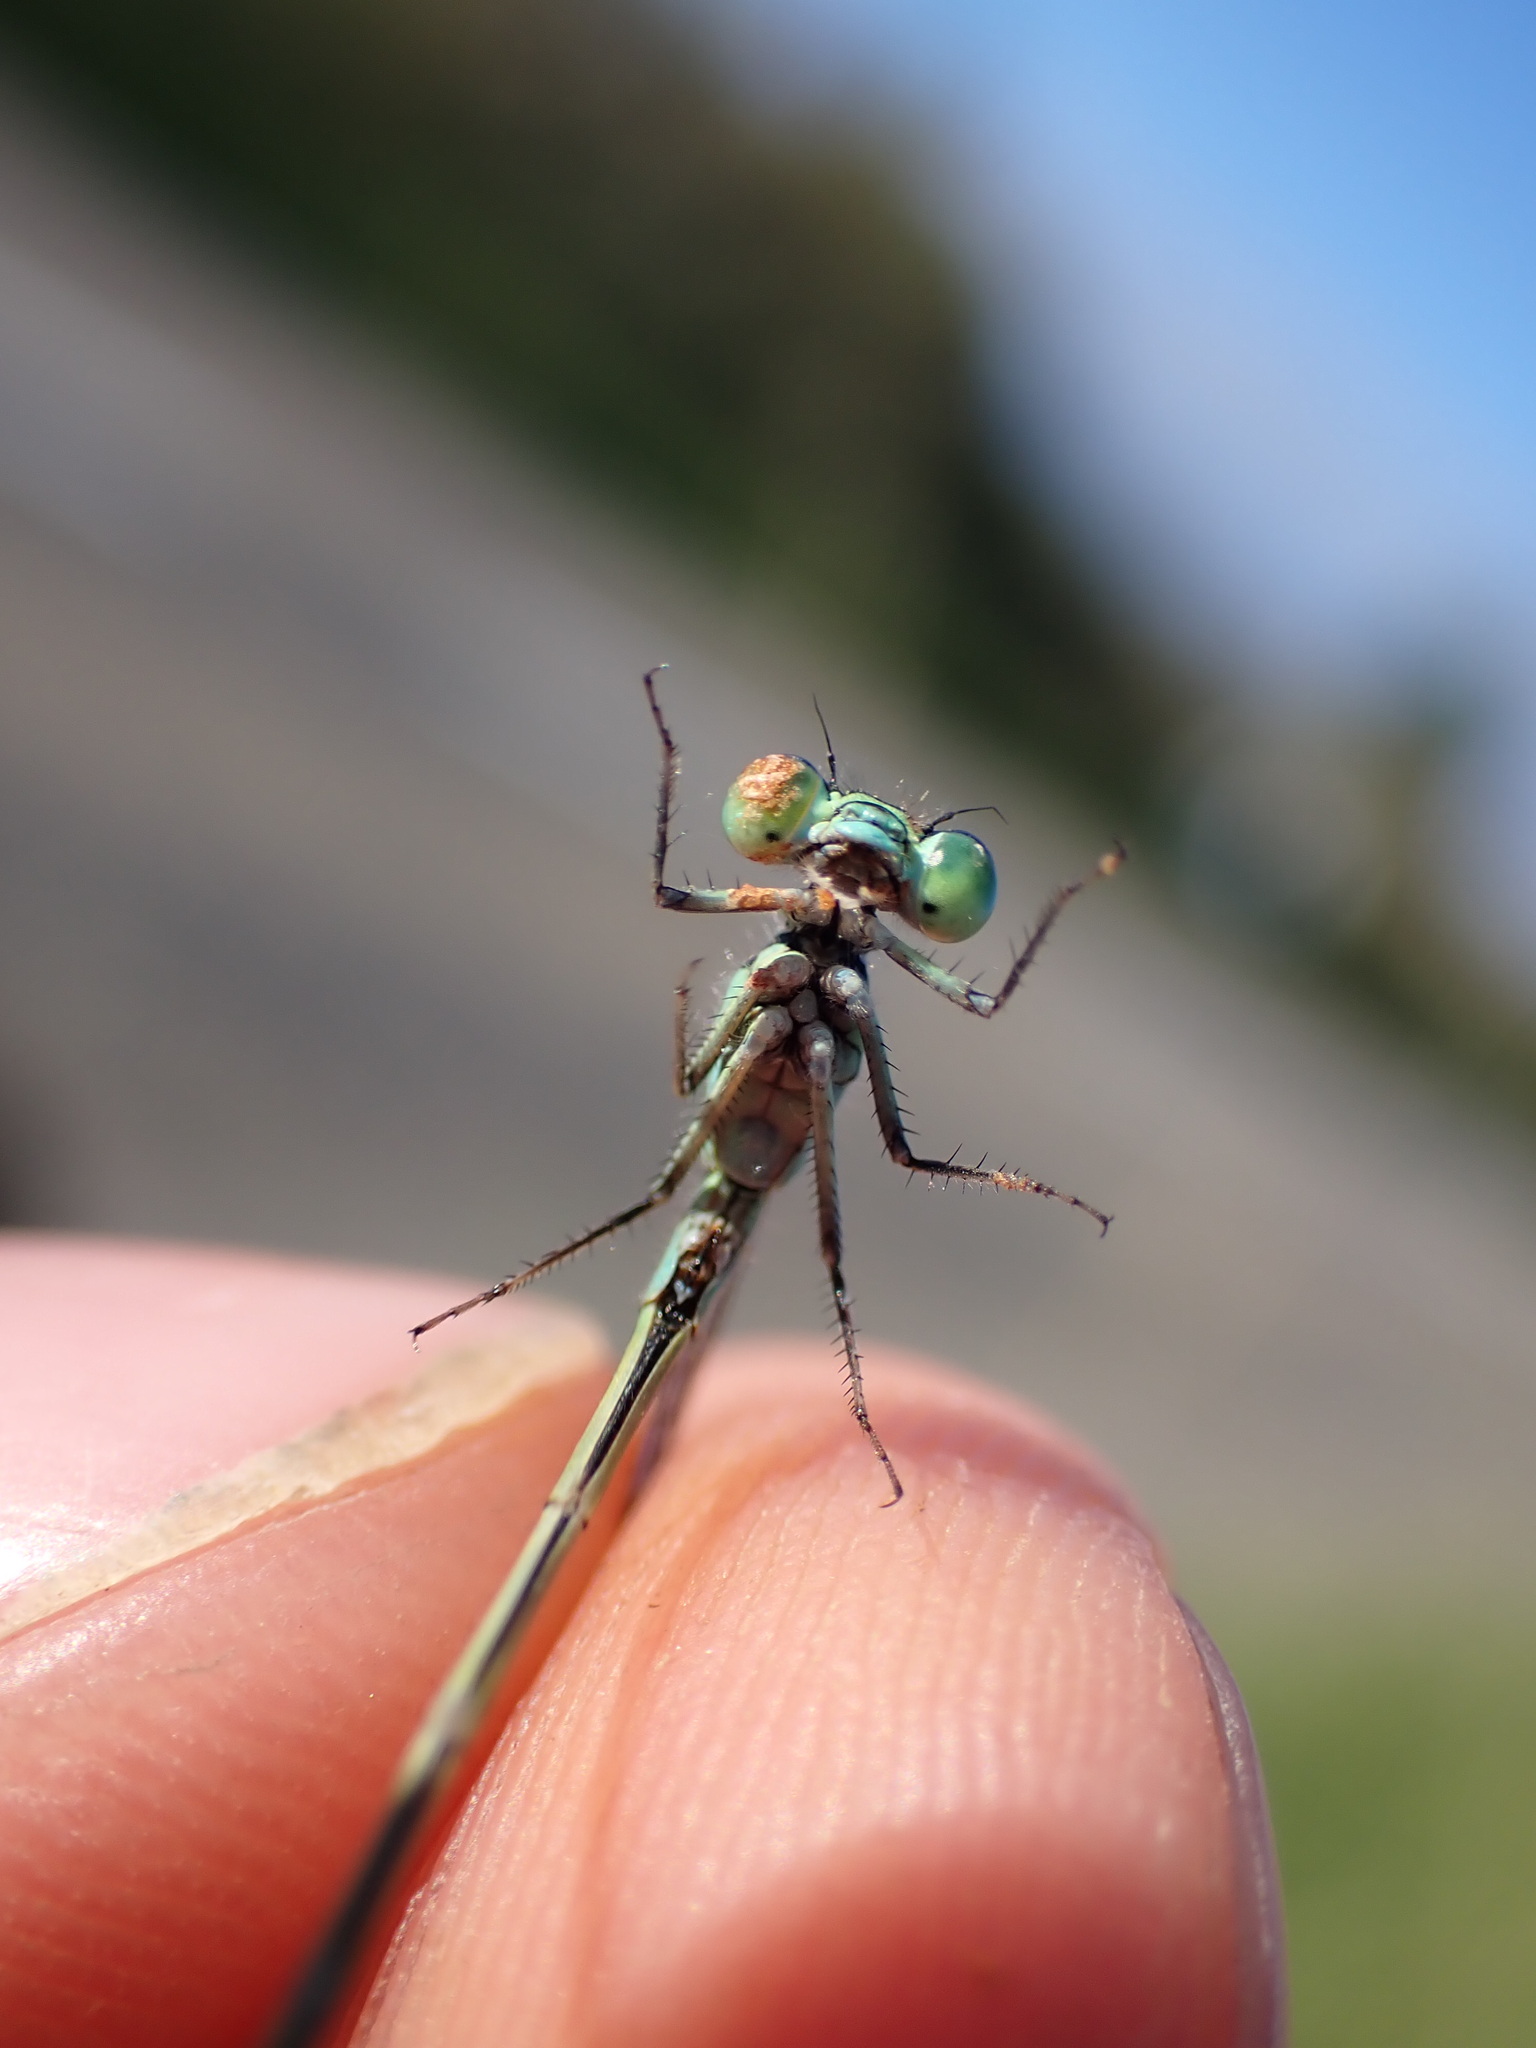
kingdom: Animalia
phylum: Arthropoda
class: Insecta
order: Odonata
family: Coenagrionidae
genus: Ischnura
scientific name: Ischnura elegans
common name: Blue-tailed damselfly
